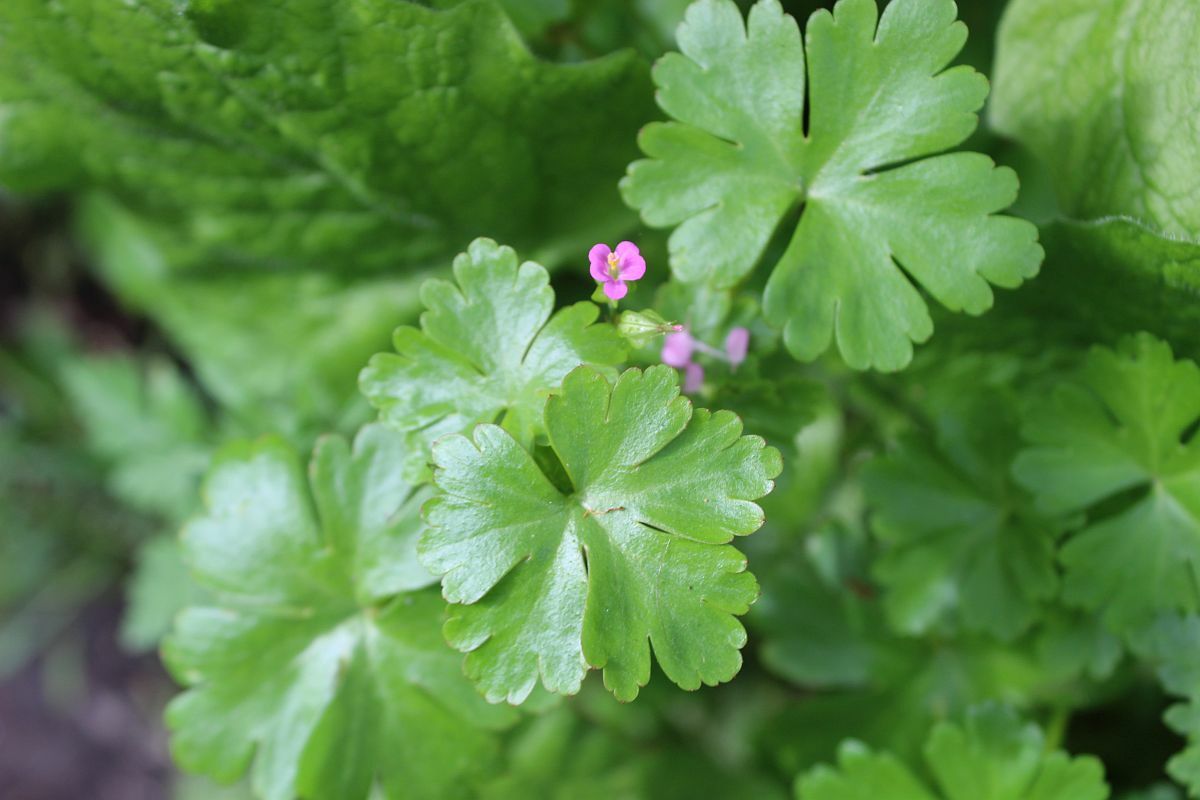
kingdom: Plantae
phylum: Tracheophyta
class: Magnoliopsida
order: Geraniales
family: Geraniaceae
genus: Geranium
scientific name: Geranium lucidum
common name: Shining crane's-bill
